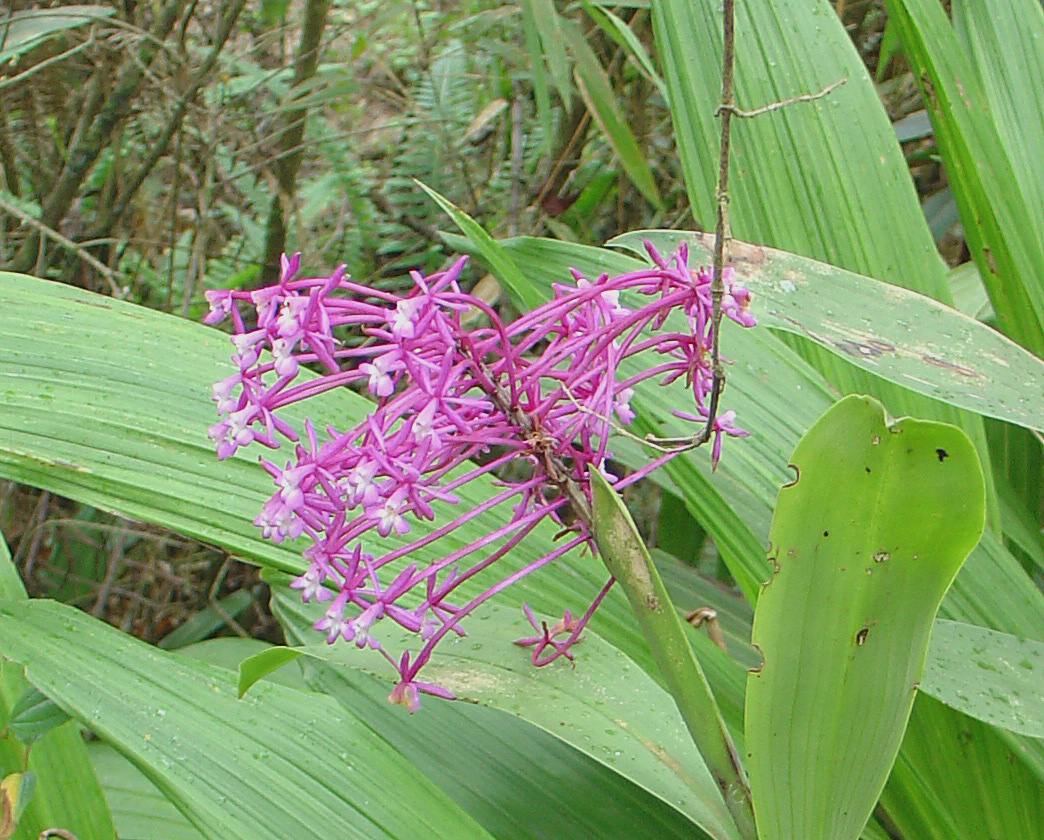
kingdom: Plantae
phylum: Tracheophyta
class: Liliopsida
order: Asparagales
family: Orchidaceae
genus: Epidendrum
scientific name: Epidendrum syringothyrsus
